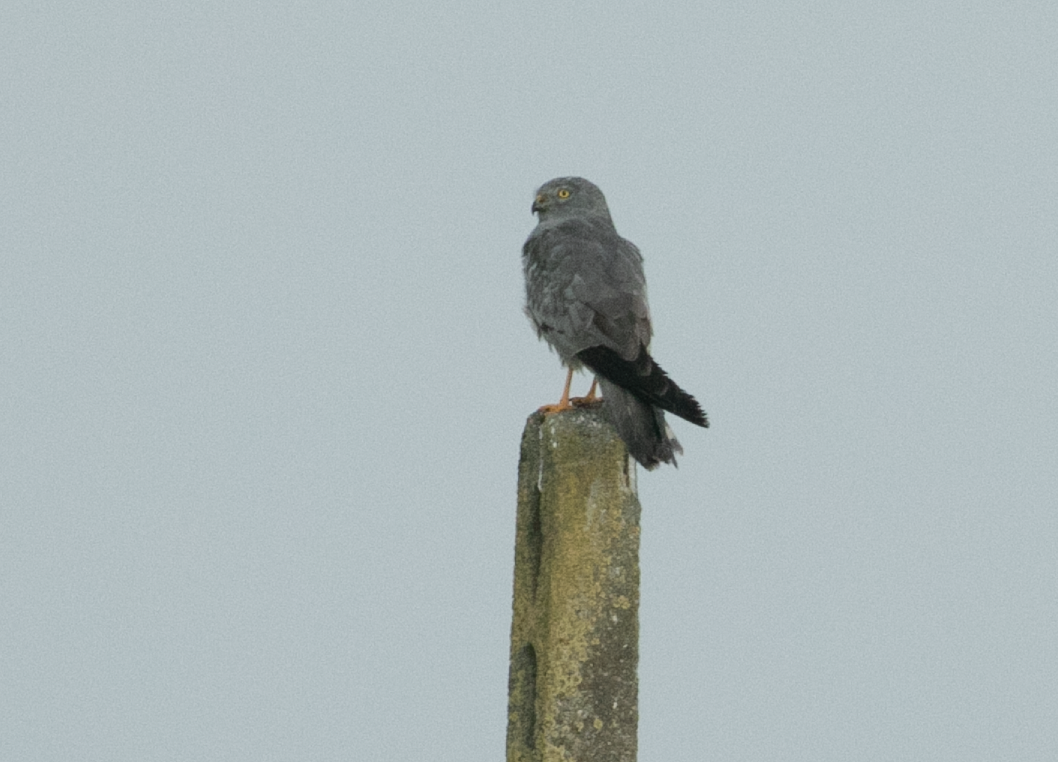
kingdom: Animalia
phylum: Chordata
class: Aves
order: Accipitriformes
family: Accipitridae
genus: Circus
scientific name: Circus pygargus
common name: Montagu's harrier
